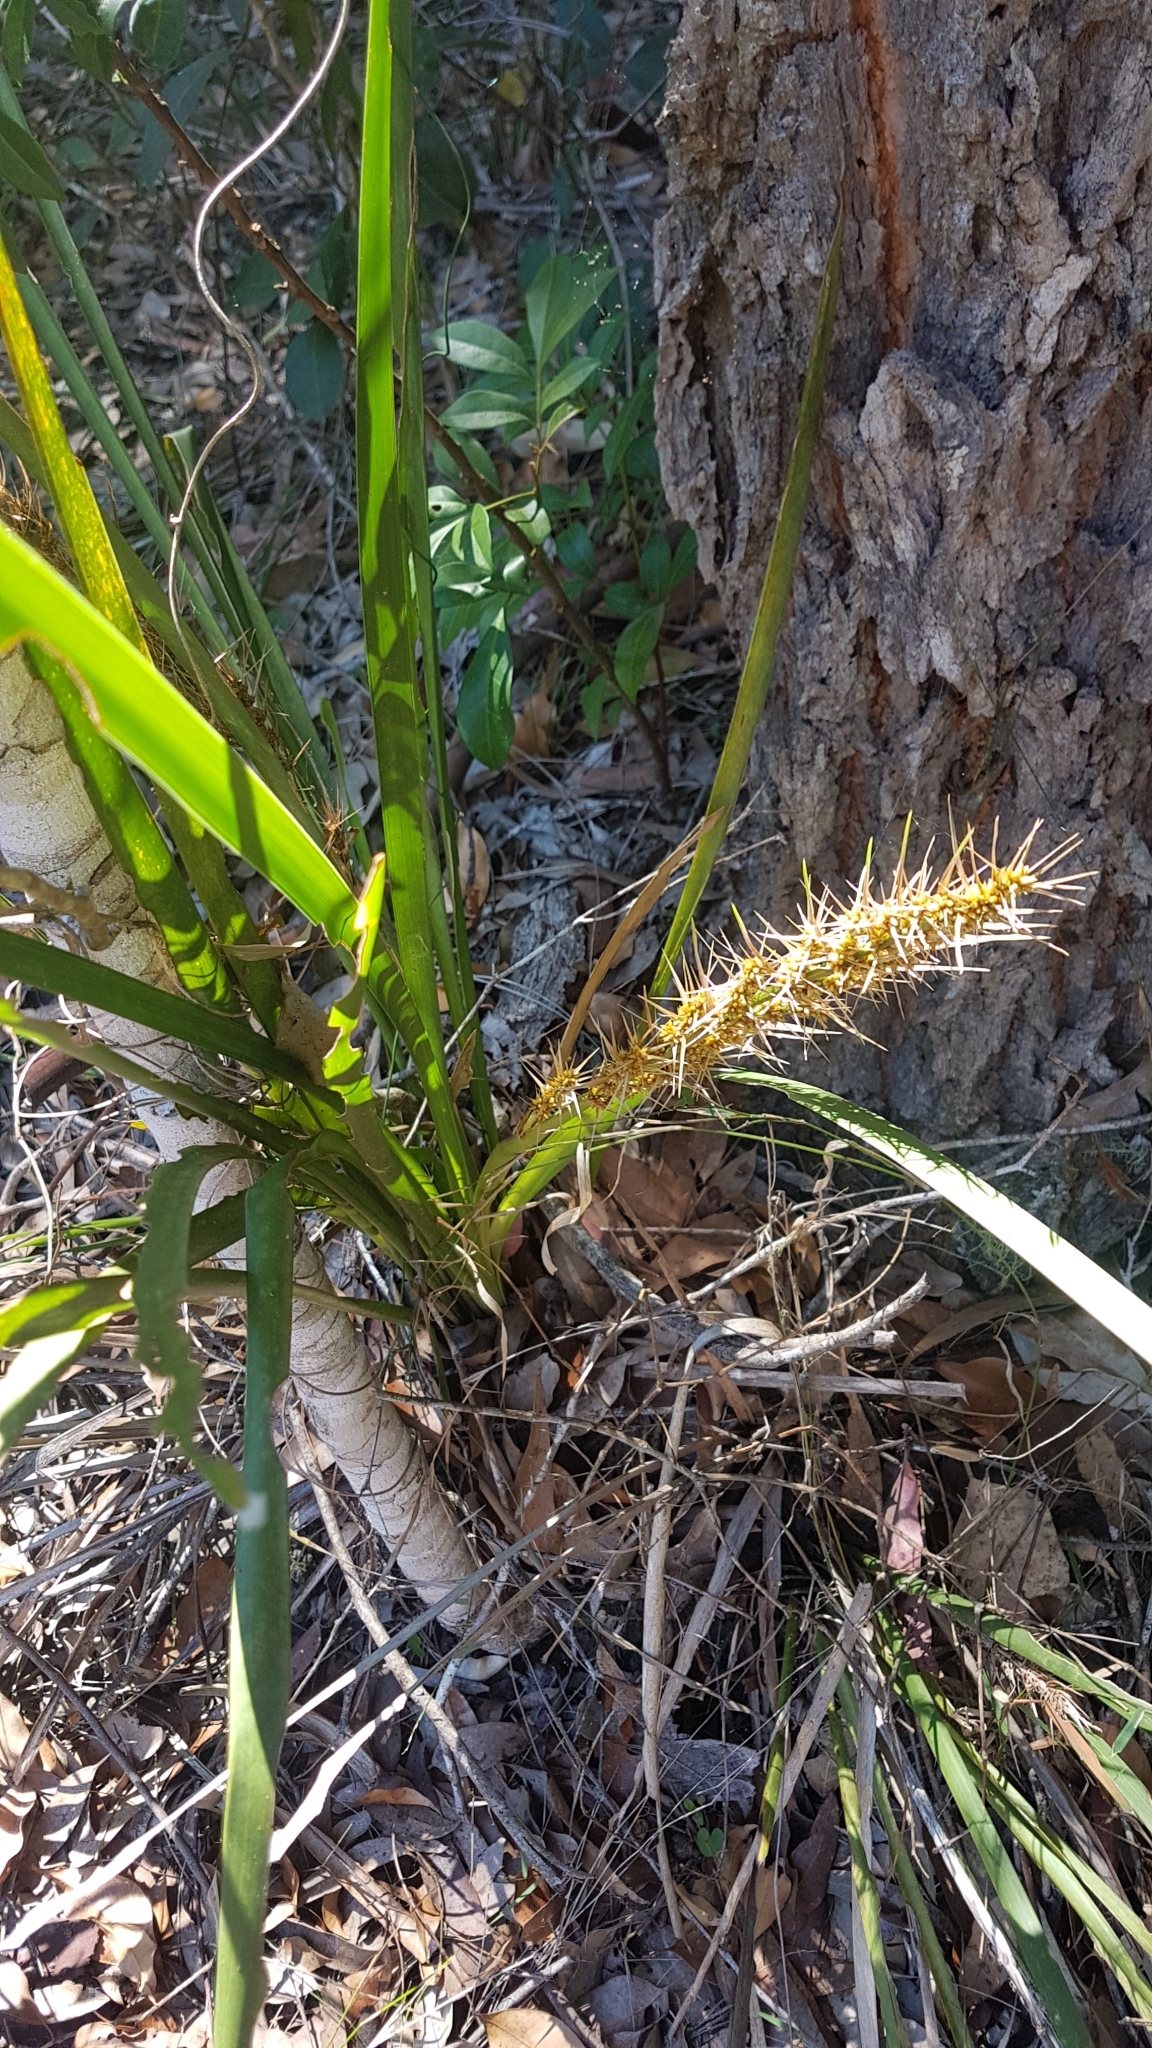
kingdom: Plantae
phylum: Tracheophyta
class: Liliopsida
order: Asparagales
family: Asparagaceae
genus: Lomandra
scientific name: Lomandra longifolia
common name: Longleaf mat-rush
